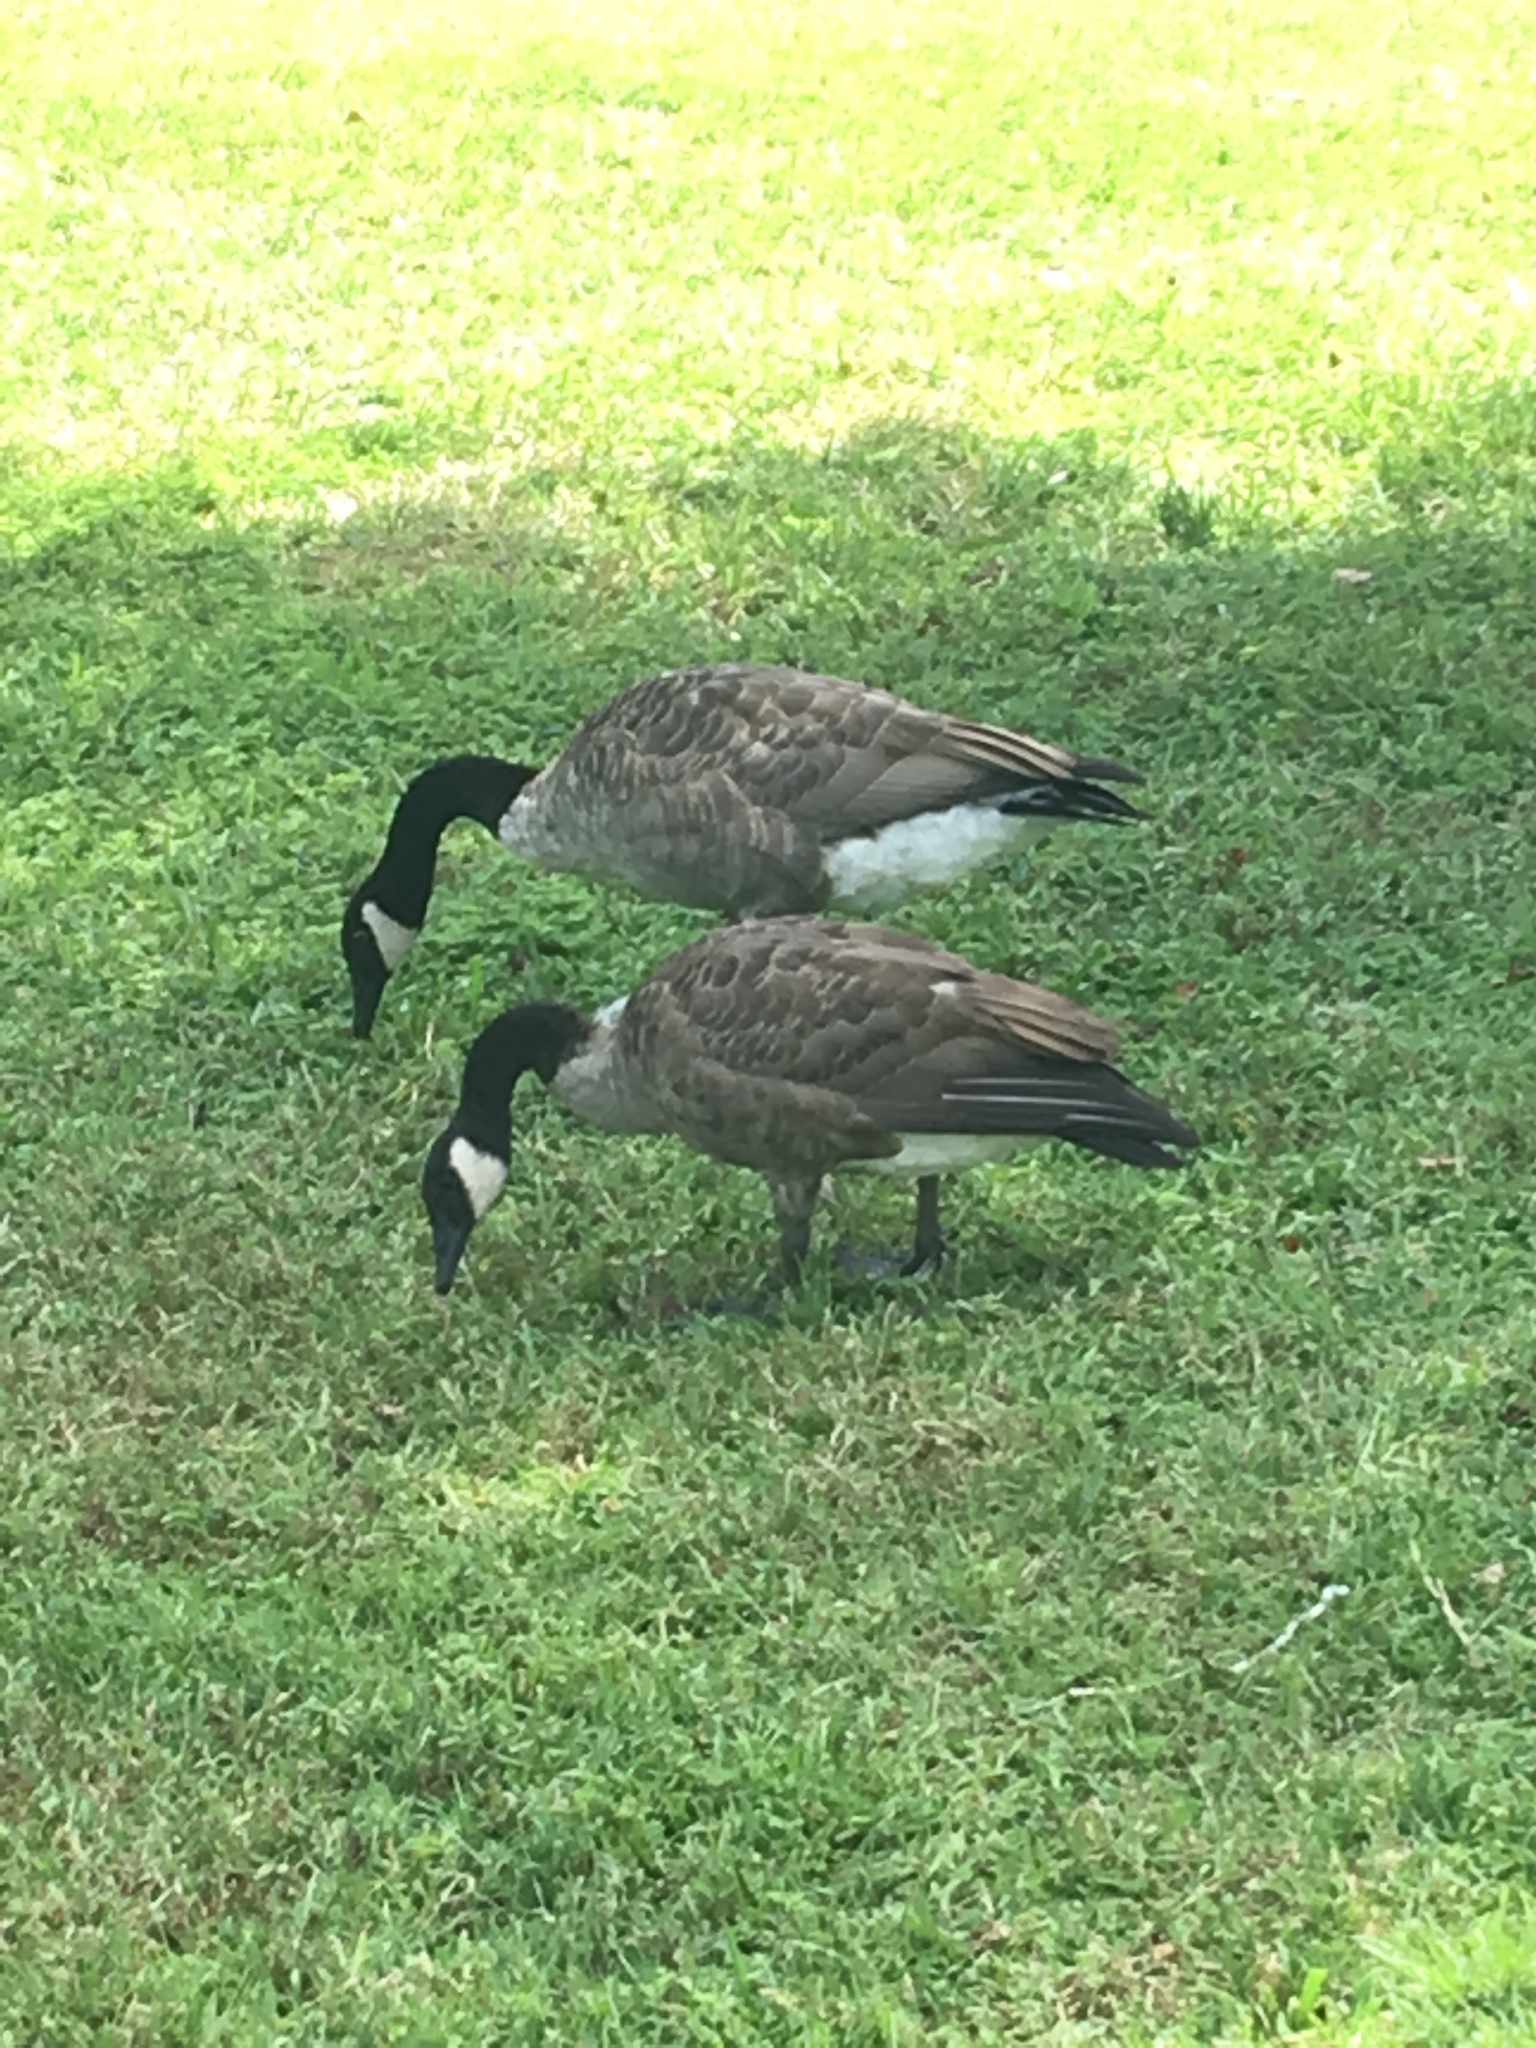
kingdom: Animalia
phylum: Chordata
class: Aves
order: Anseriformes
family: Anatidae
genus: Branta
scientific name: Branta canadensis
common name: Canada goose
